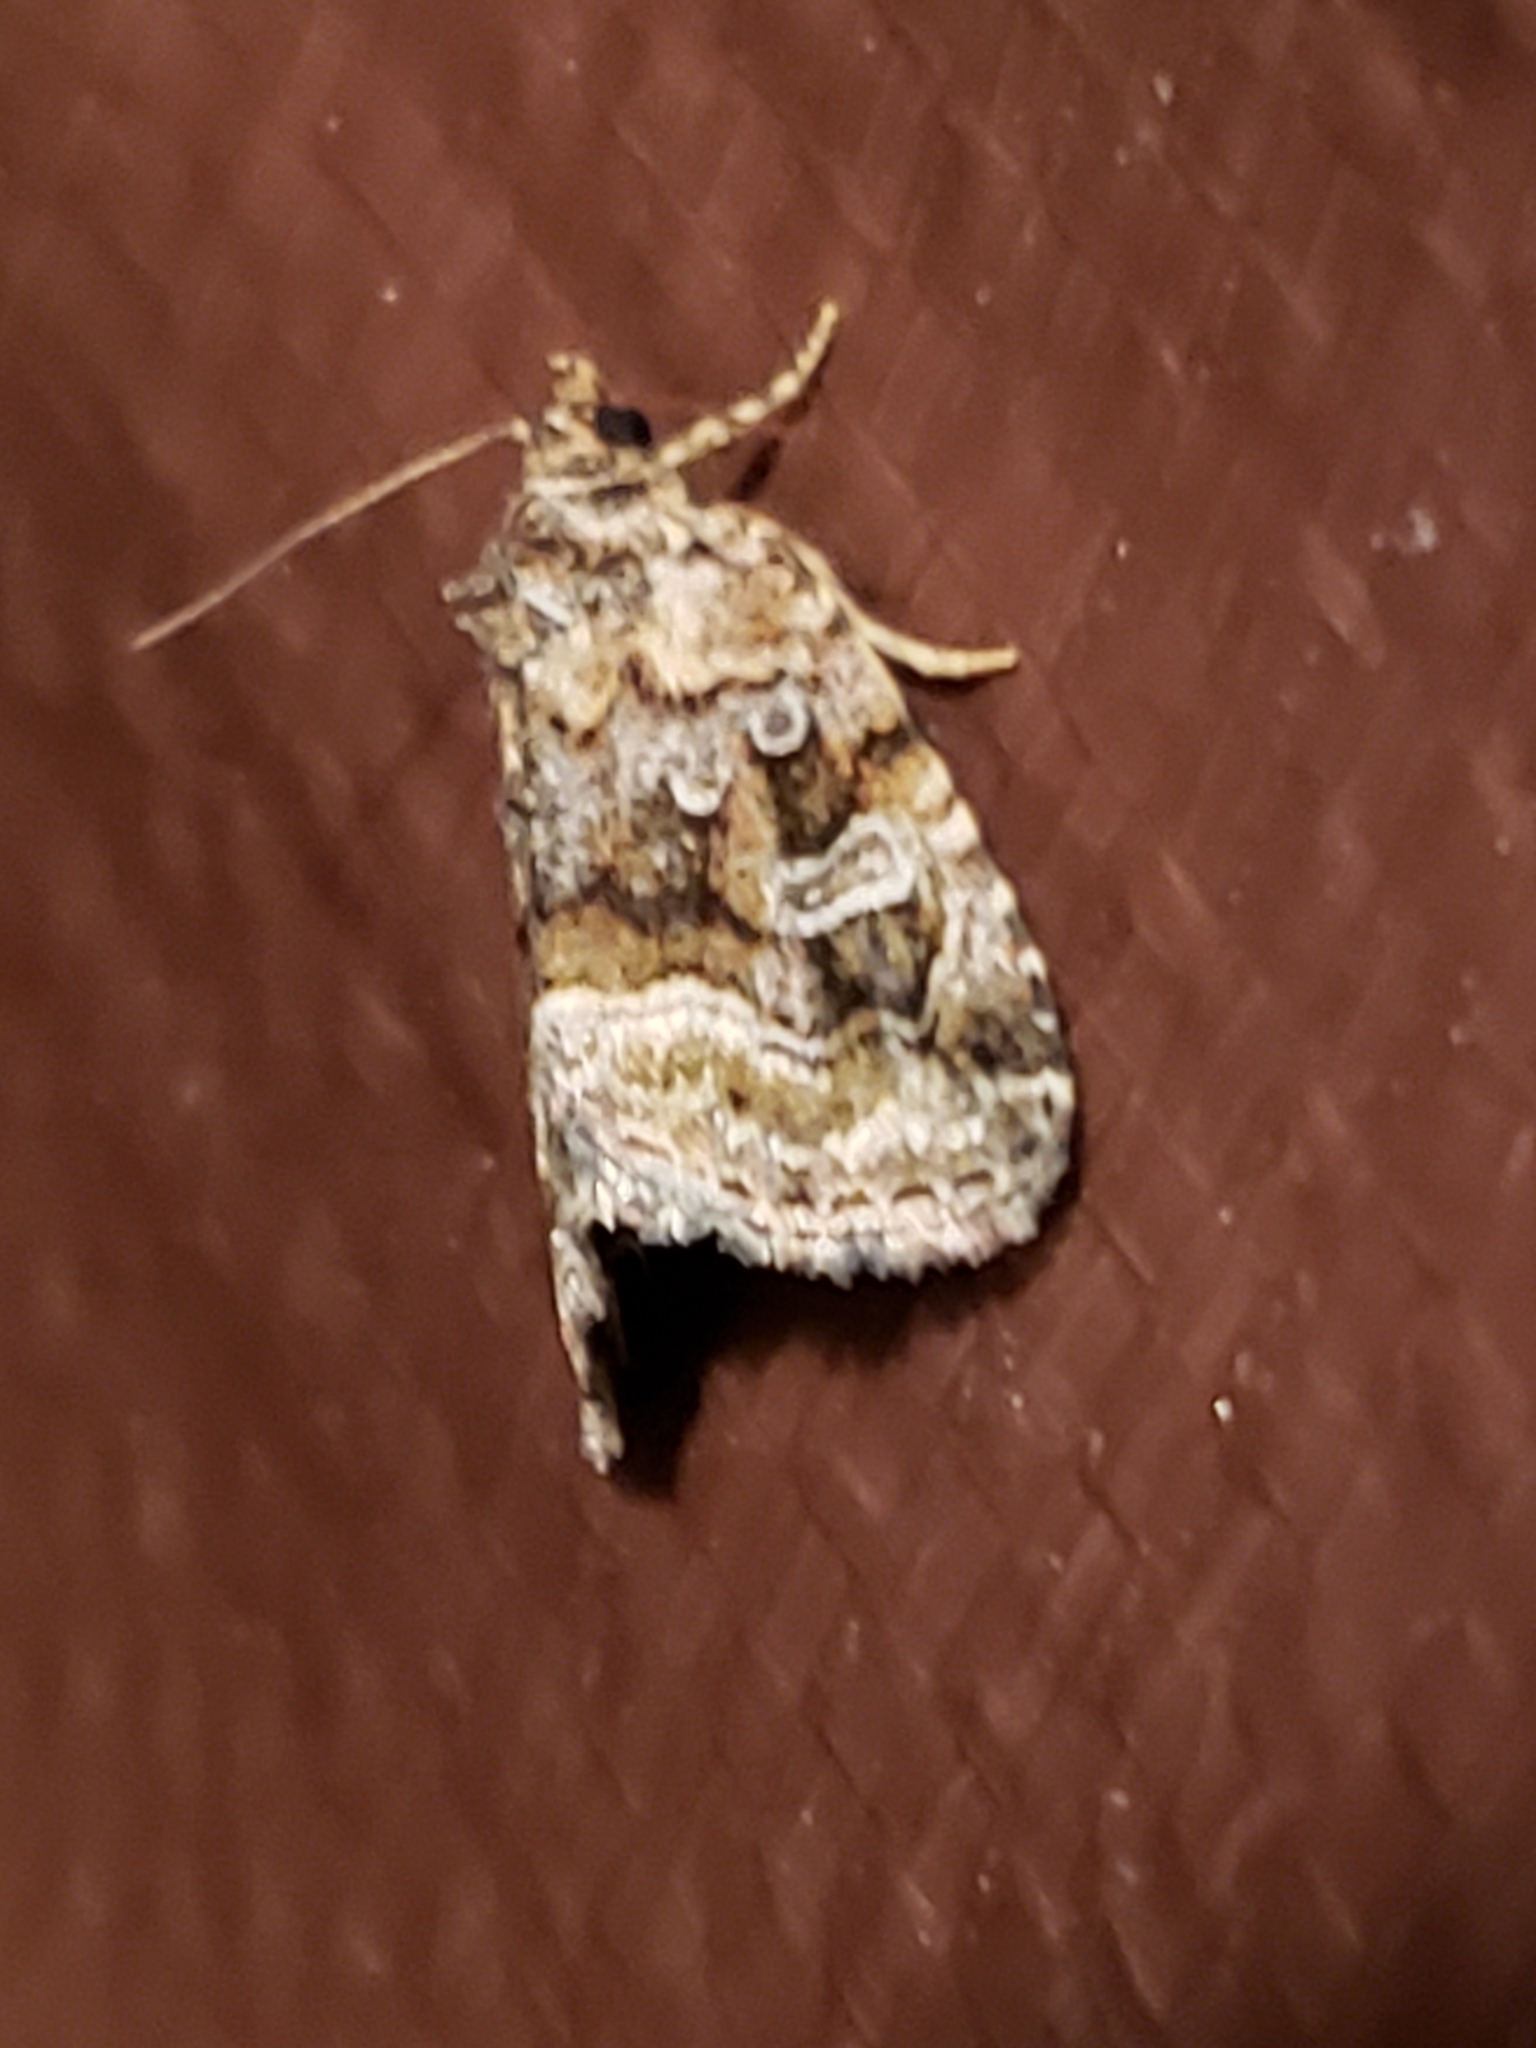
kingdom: Animalia
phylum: Arthropoda
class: Insecta
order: Lepidoptera
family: Noctuidae
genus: Protodeltote
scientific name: Protodeltote muscosula
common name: Large mossy glyph
